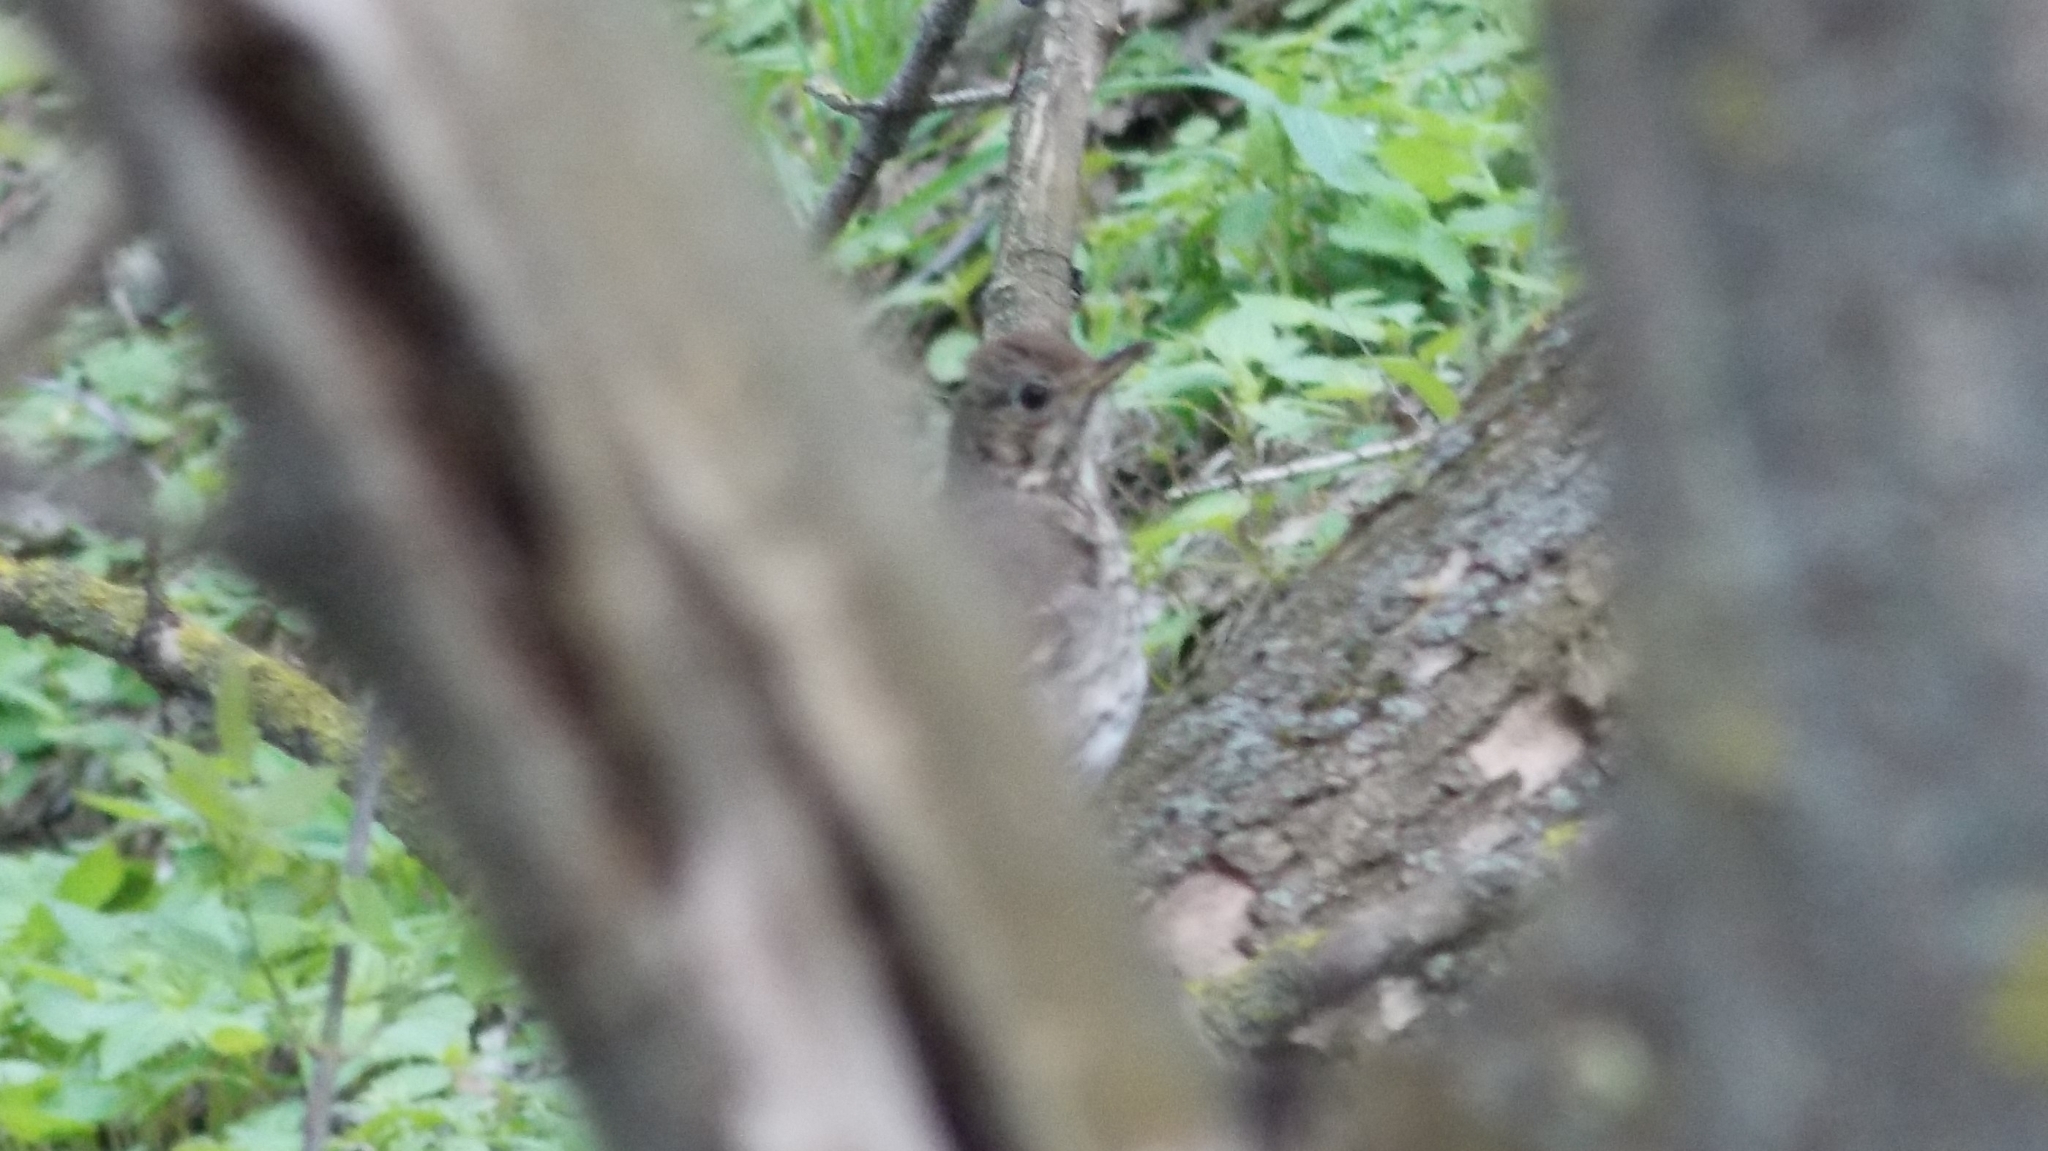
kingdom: Animalia
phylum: Chordata
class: Aves
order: Passeriformes
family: Turdidae
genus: Turdus
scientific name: Turdus philomelos
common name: Song thrush
